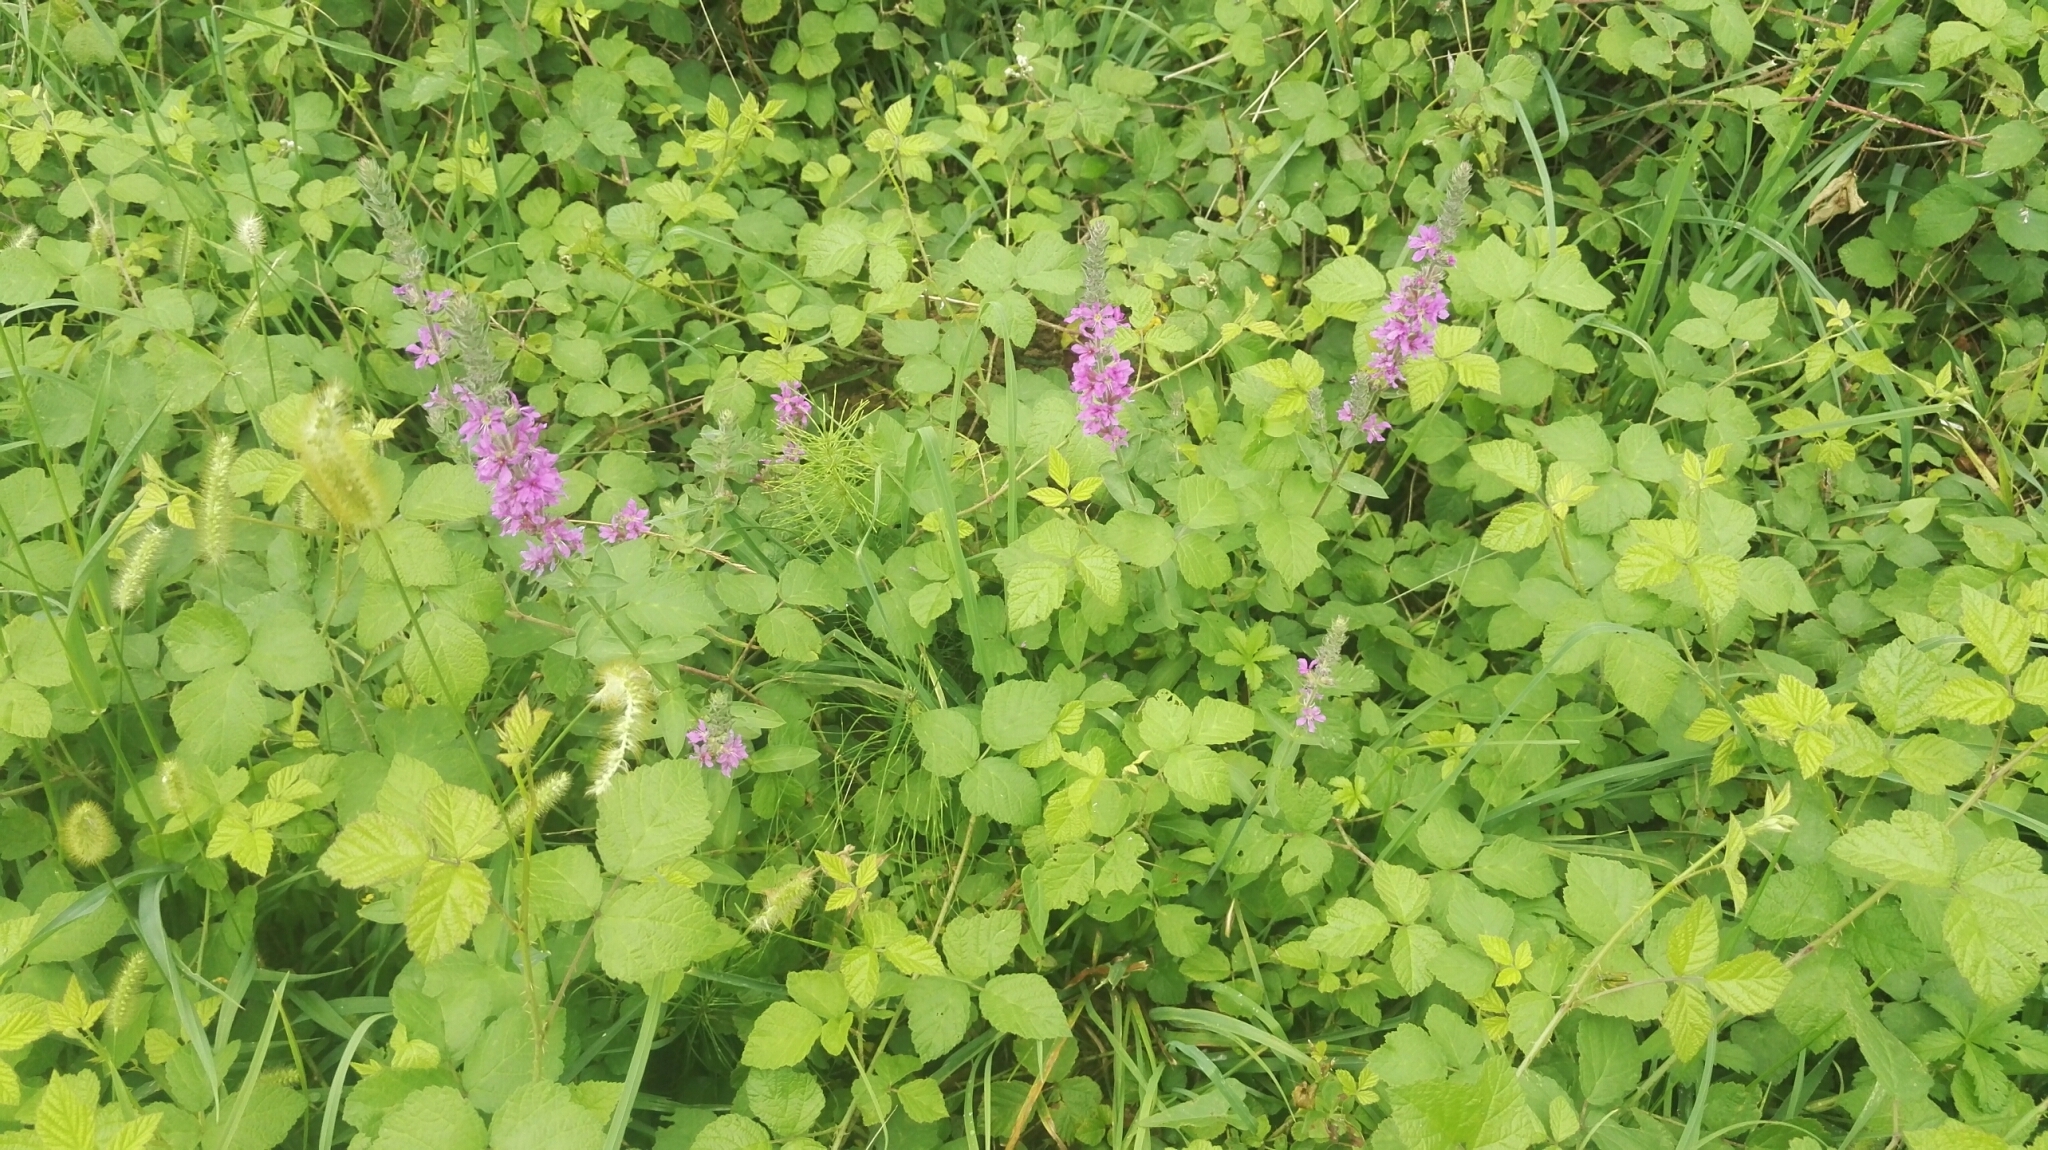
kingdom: Plantae
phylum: Tracheophyta
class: Magnoliopsida
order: Myrtales
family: Lythraceae
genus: Lythrum
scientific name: Lythrum salicaria
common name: Purple loosestrife
